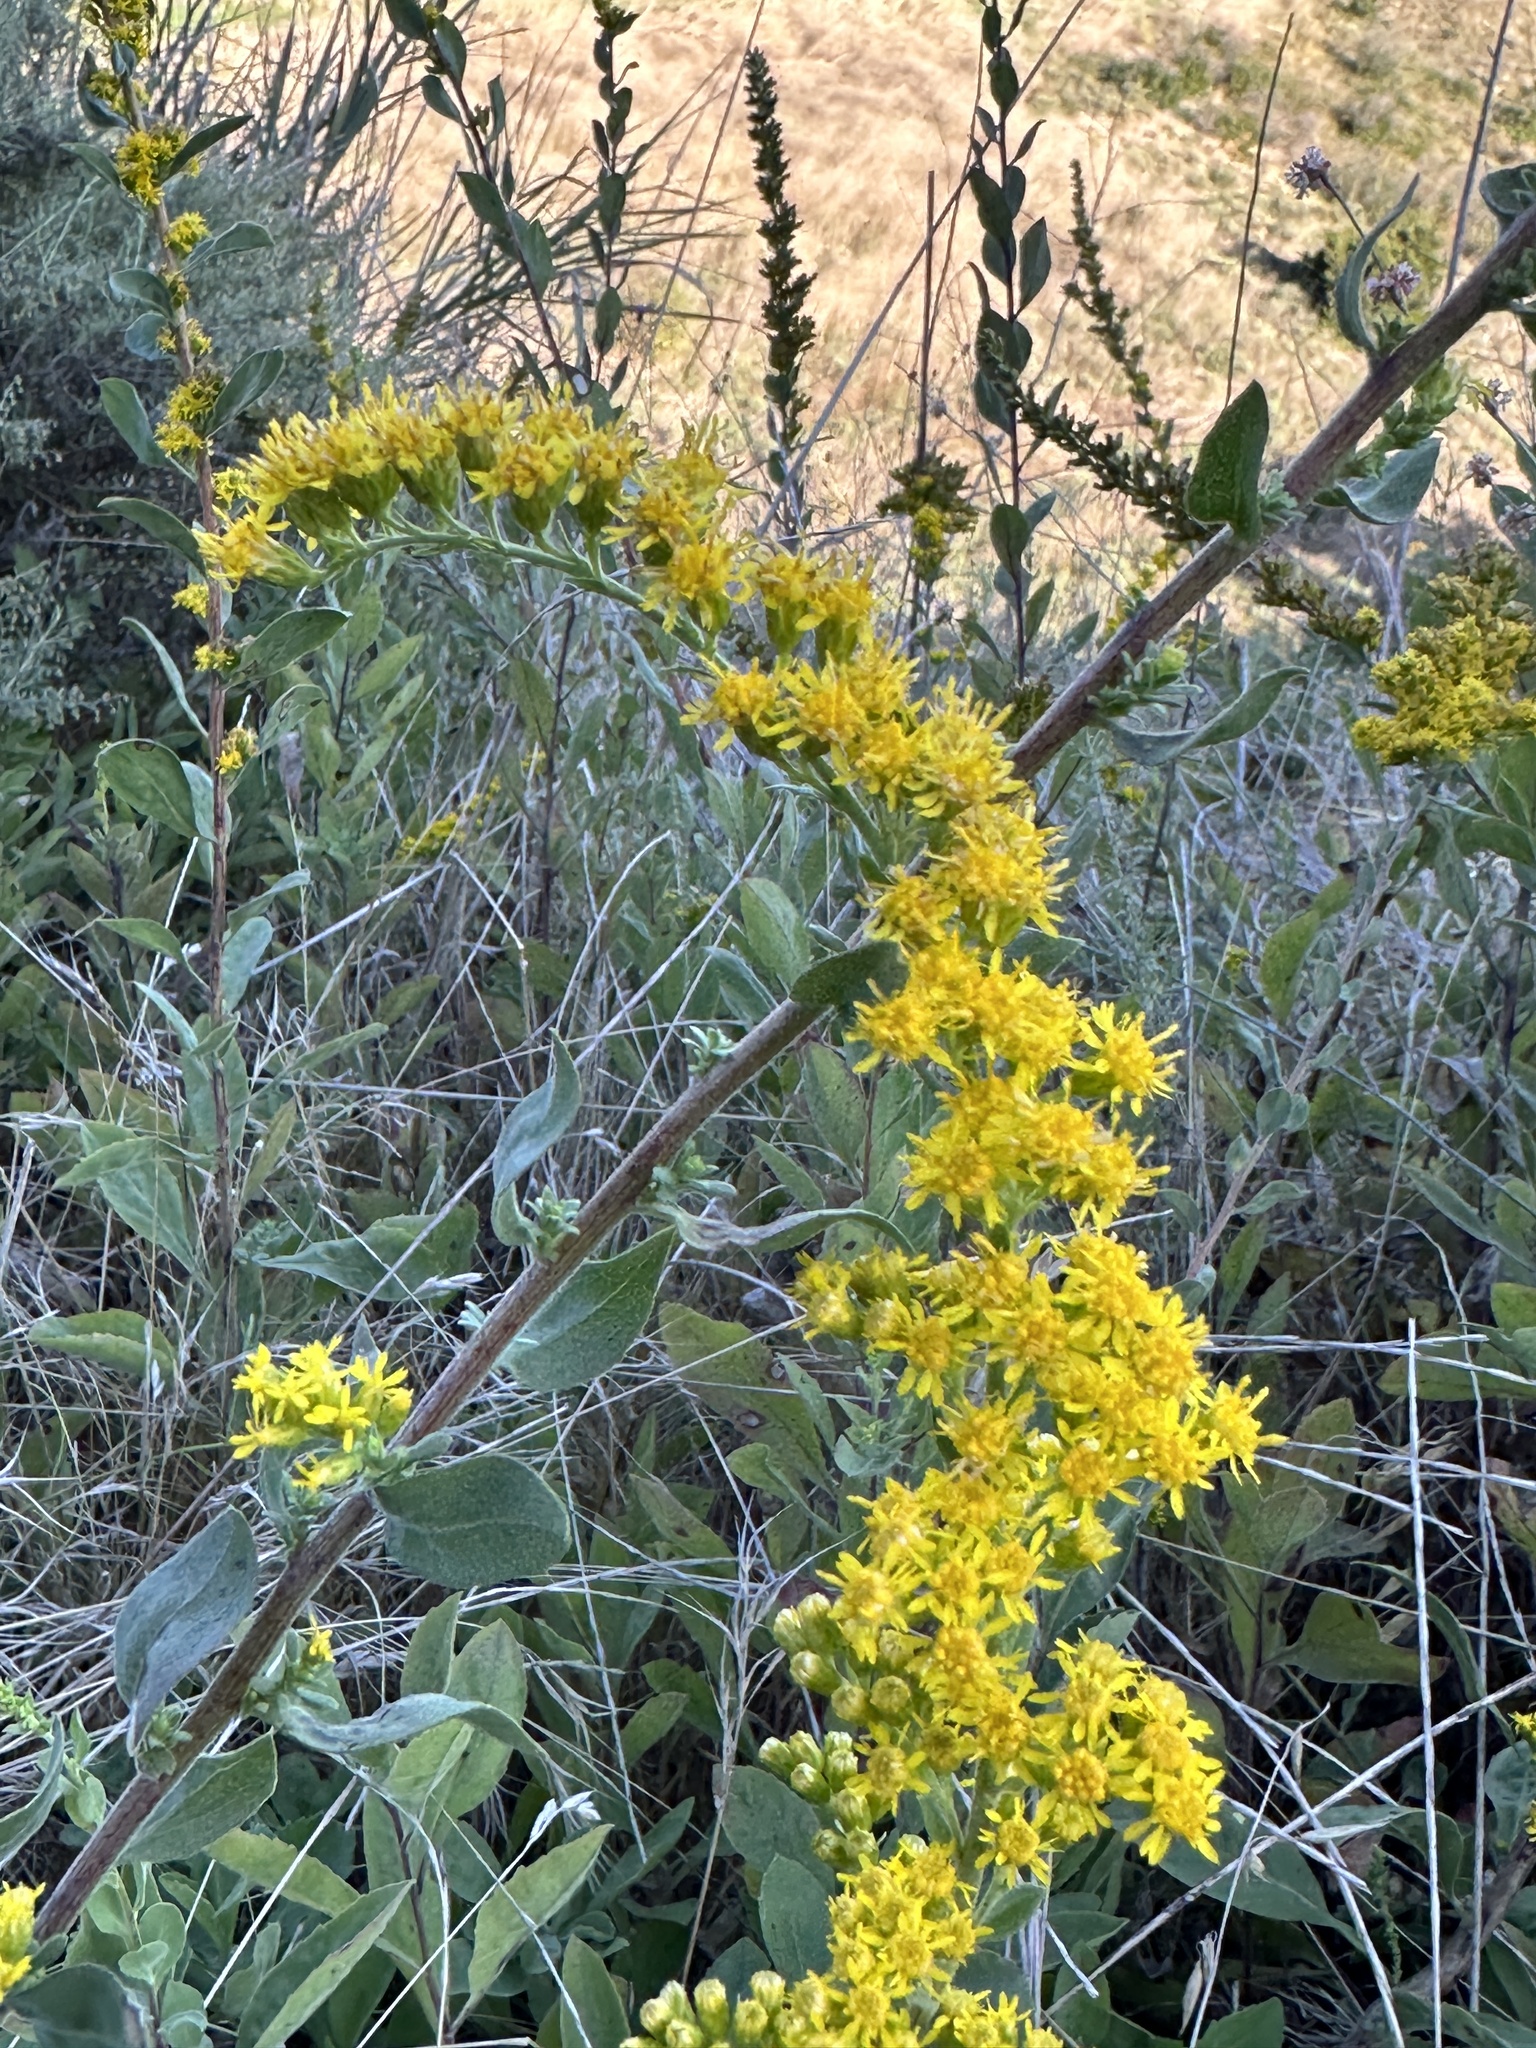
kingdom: Plantae
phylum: Tracheophyta
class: Magnoliopsida
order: Asterales
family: Asteraceae
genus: Solidago
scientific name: Solidago velutina
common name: Three-nerve goldenrod
